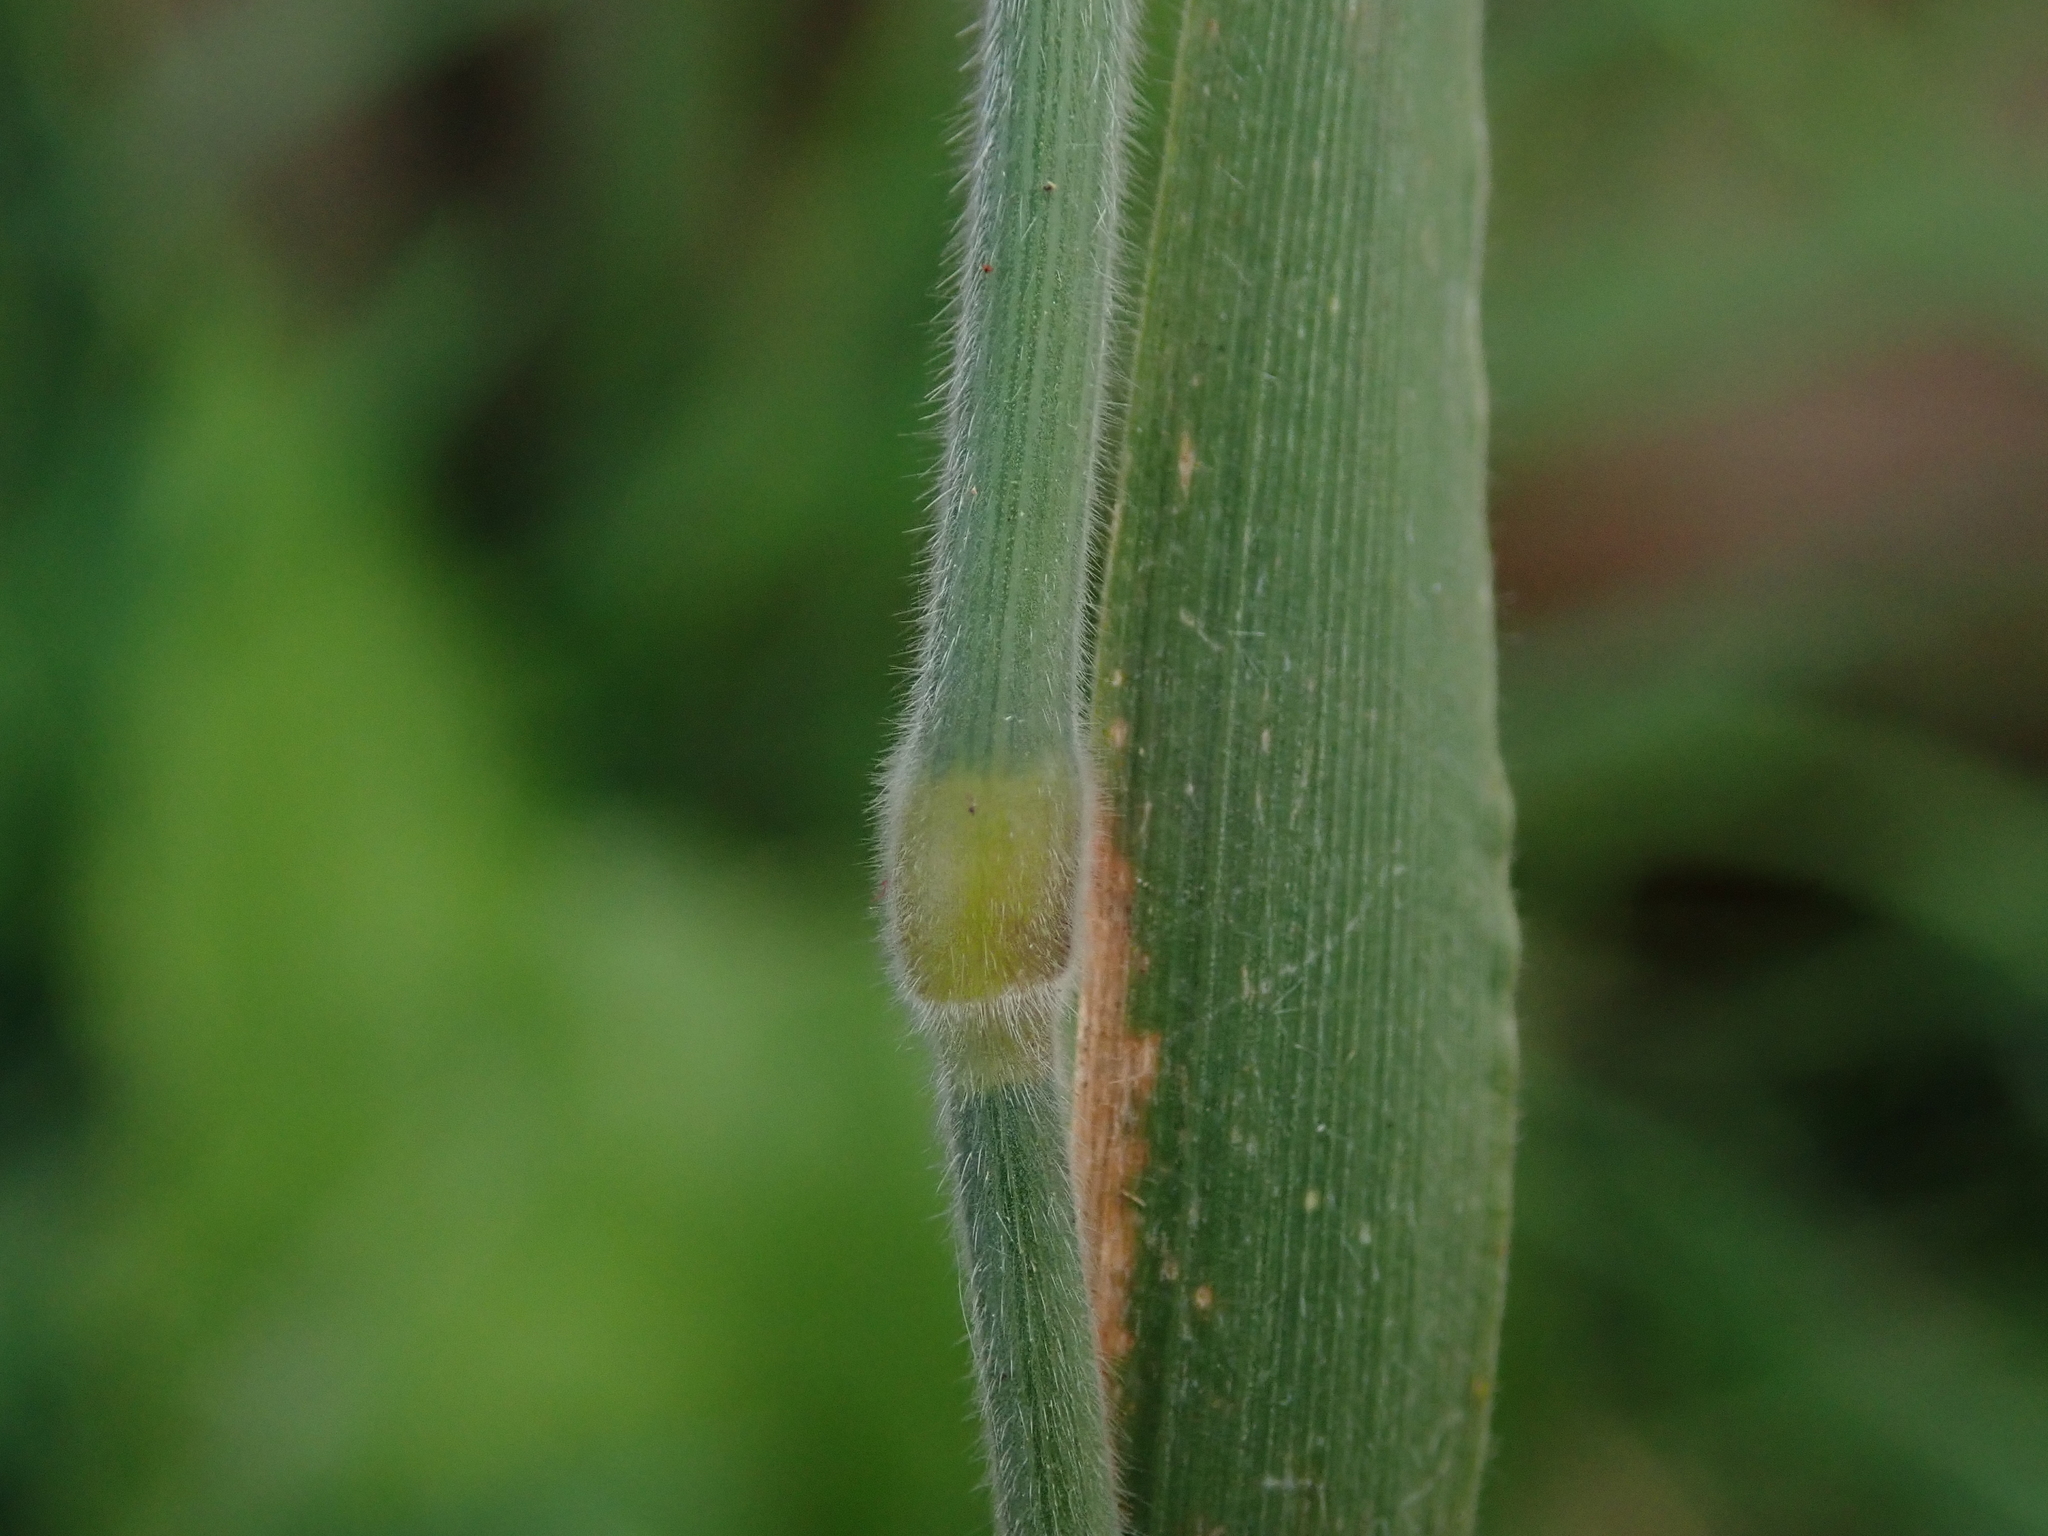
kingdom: Plantae
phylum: Tracheophyta
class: Liliopsida
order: Poales
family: Poaceae
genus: Holcus
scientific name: Holcus lanatus
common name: Yorkshire-fog
